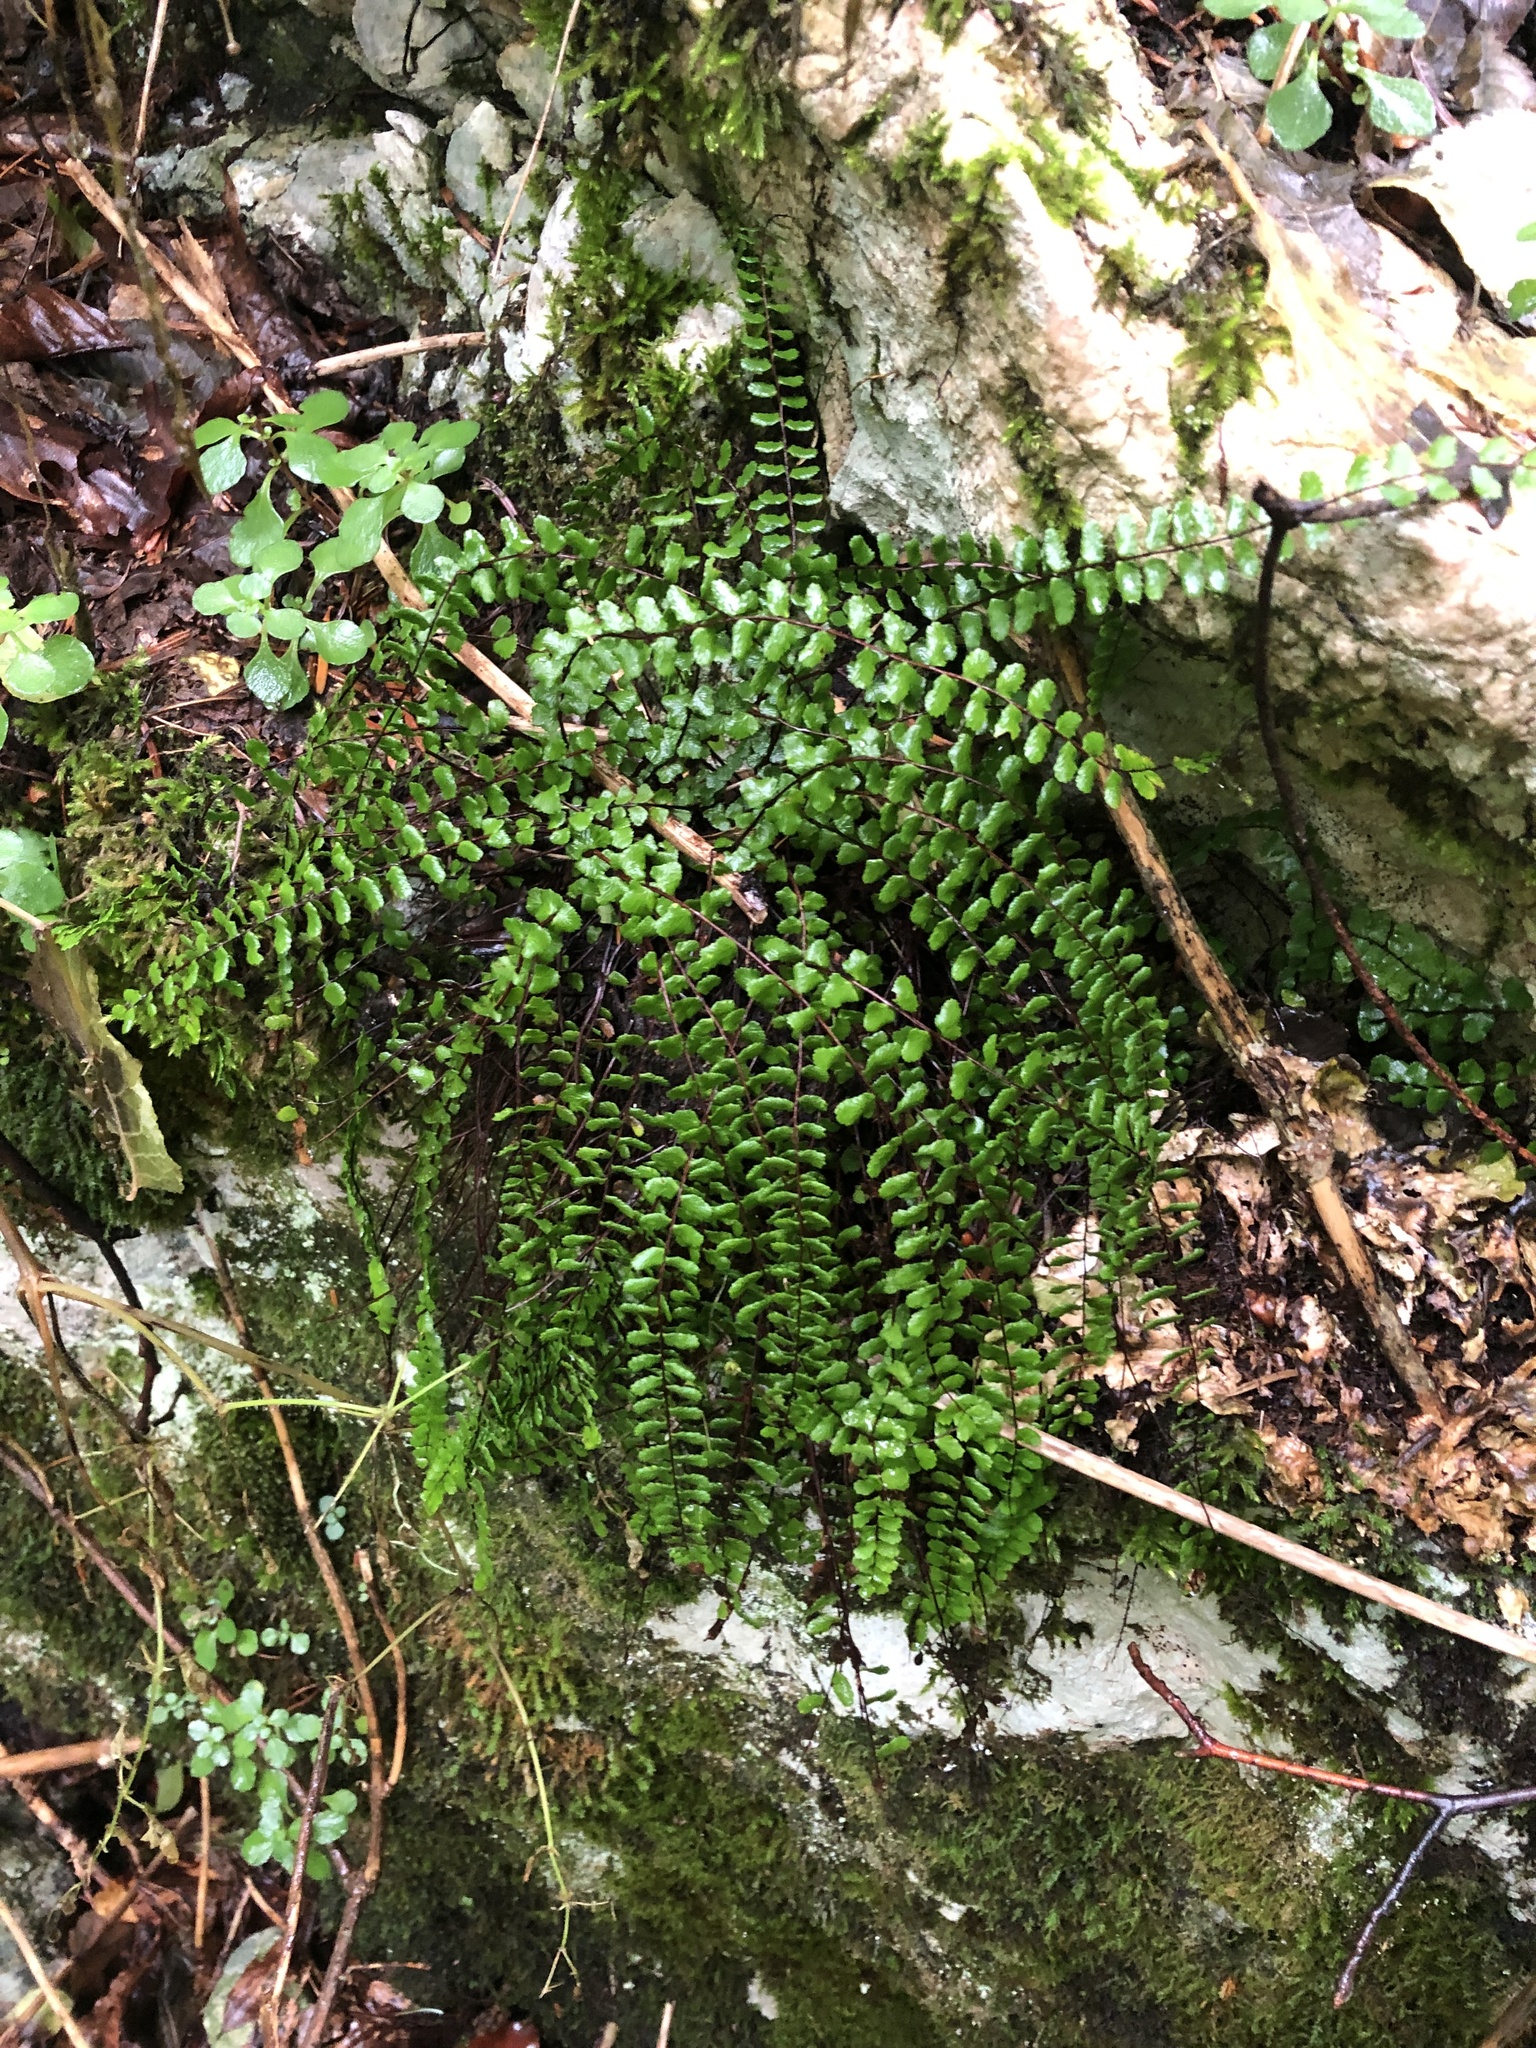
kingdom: Plantae
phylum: Tracheophyta
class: Polypodiopsida
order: Polypodiales
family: Aspleniaceae
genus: Asplenium
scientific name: Asplenium trichomanes
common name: Maidenhair spleenwort
